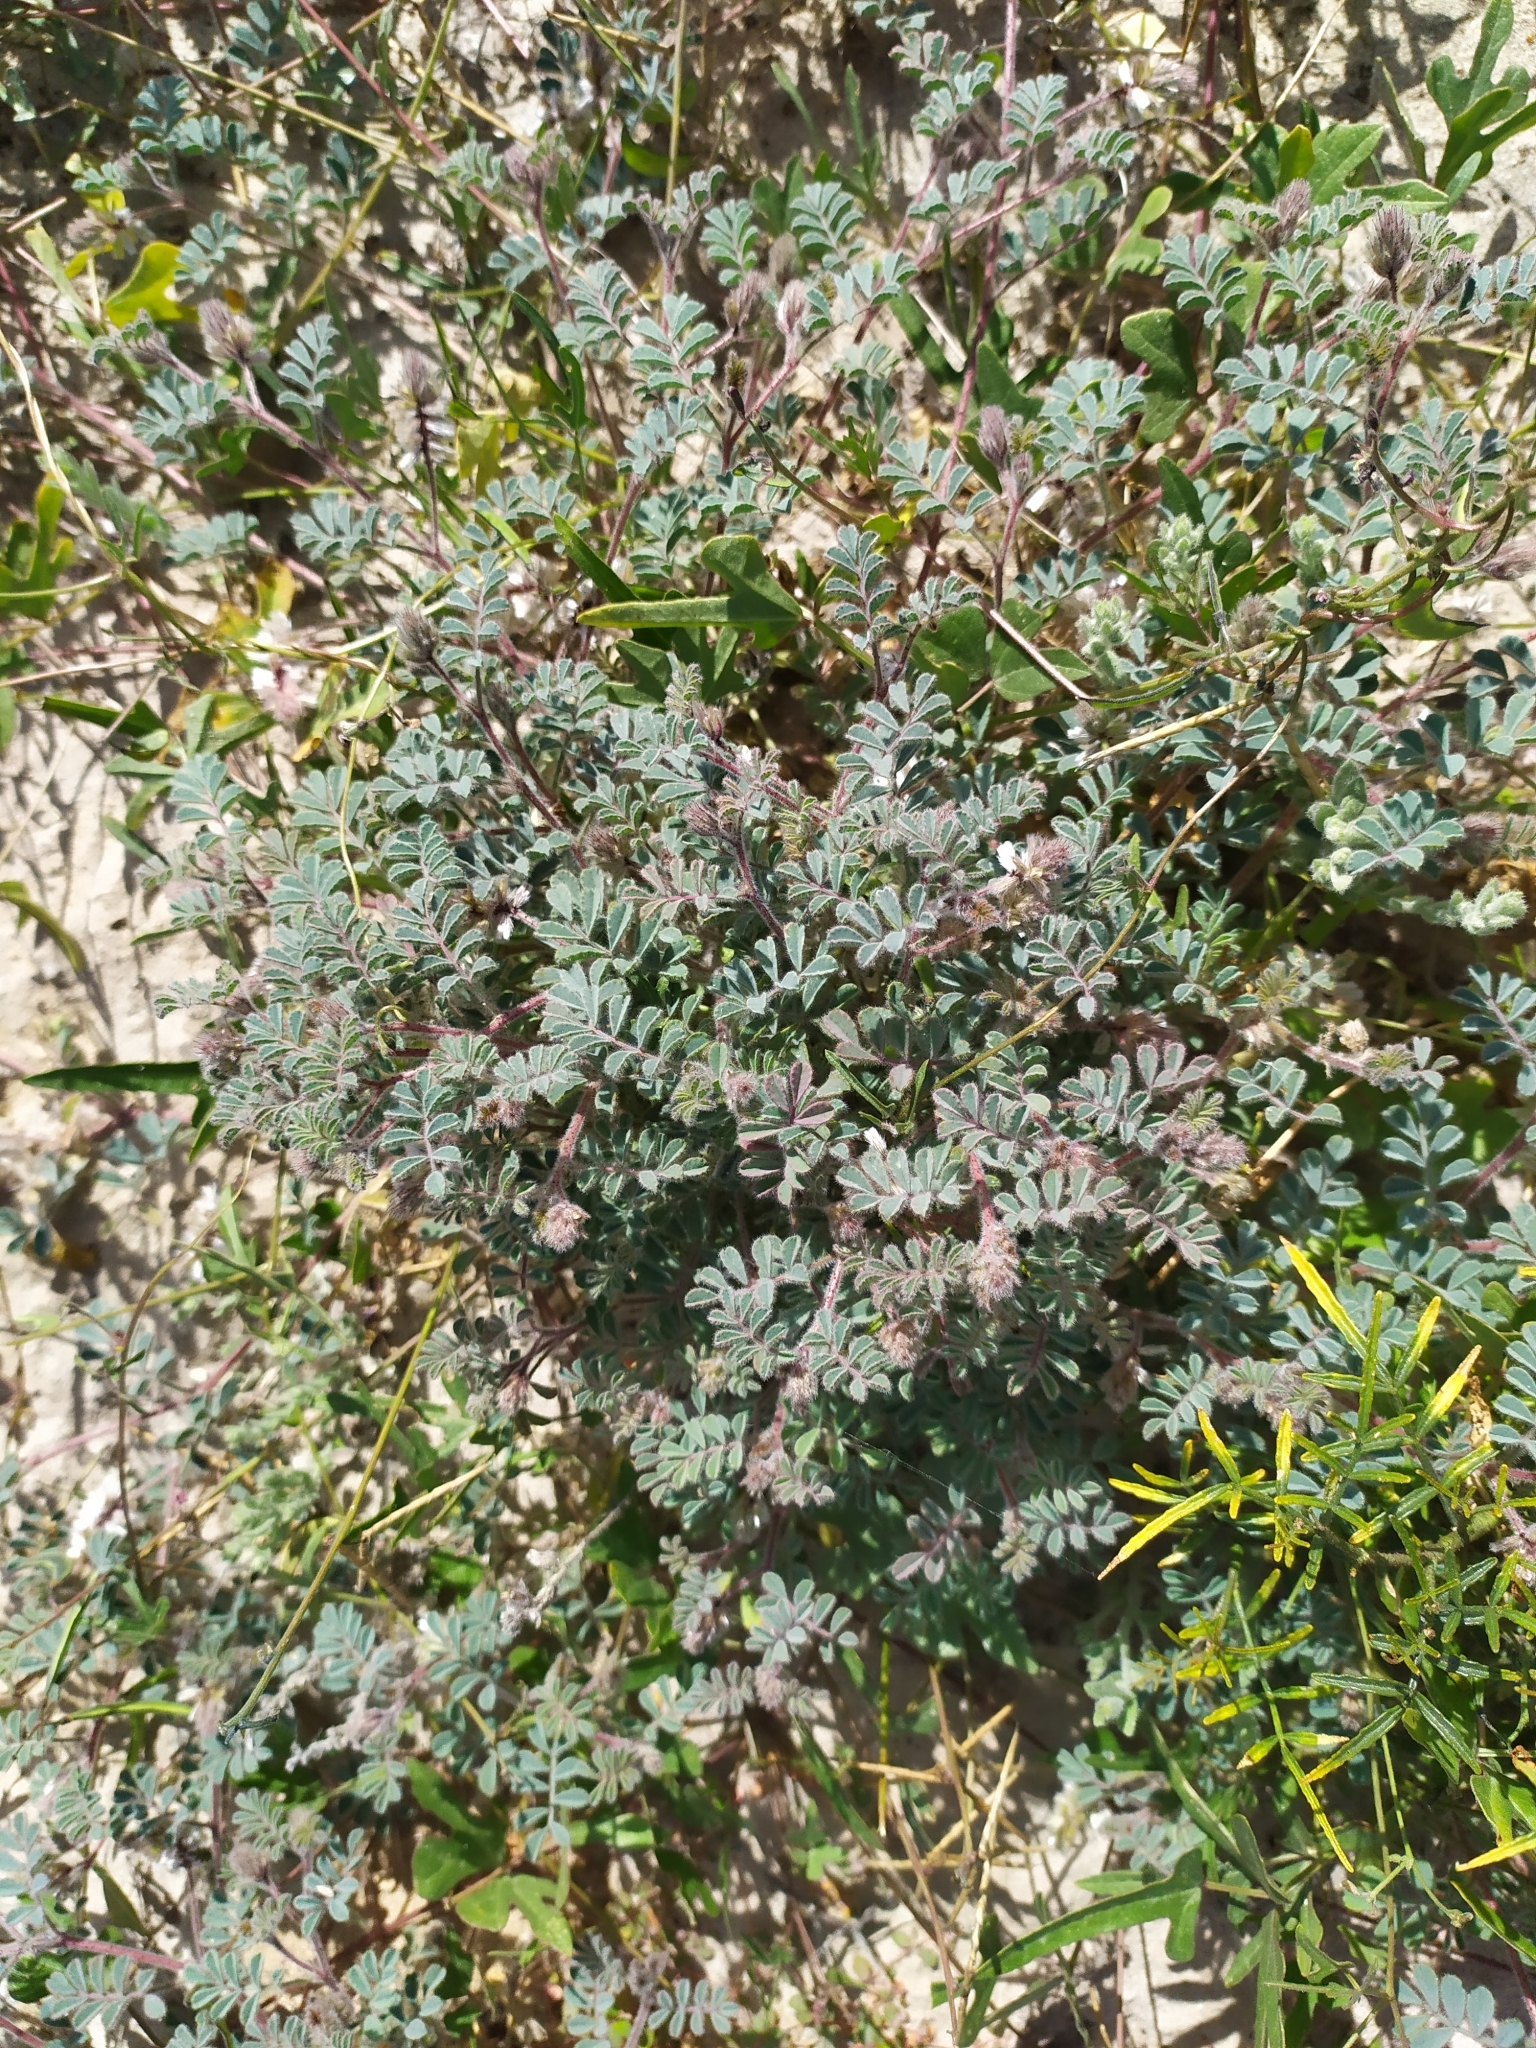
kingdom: Plantae
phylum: Tracheophyta
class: Magnoliopsida
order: Fabales
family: Fabaceae
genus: Dalea
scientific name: Dalea mollis
